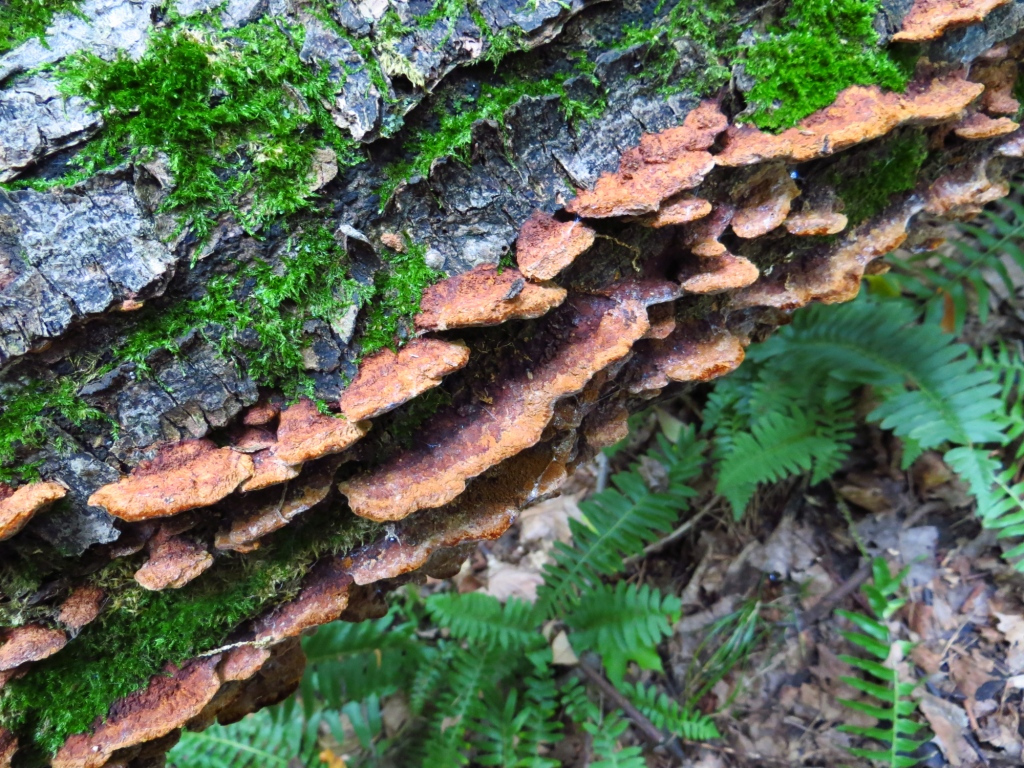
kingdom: Fungi
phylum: Basidiomycota
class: Agaricomycetes
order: Polyporales
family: Polyporaceae
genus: Trametes
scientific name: Trametes cinnabarina
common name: Northern cinnabar polypore
